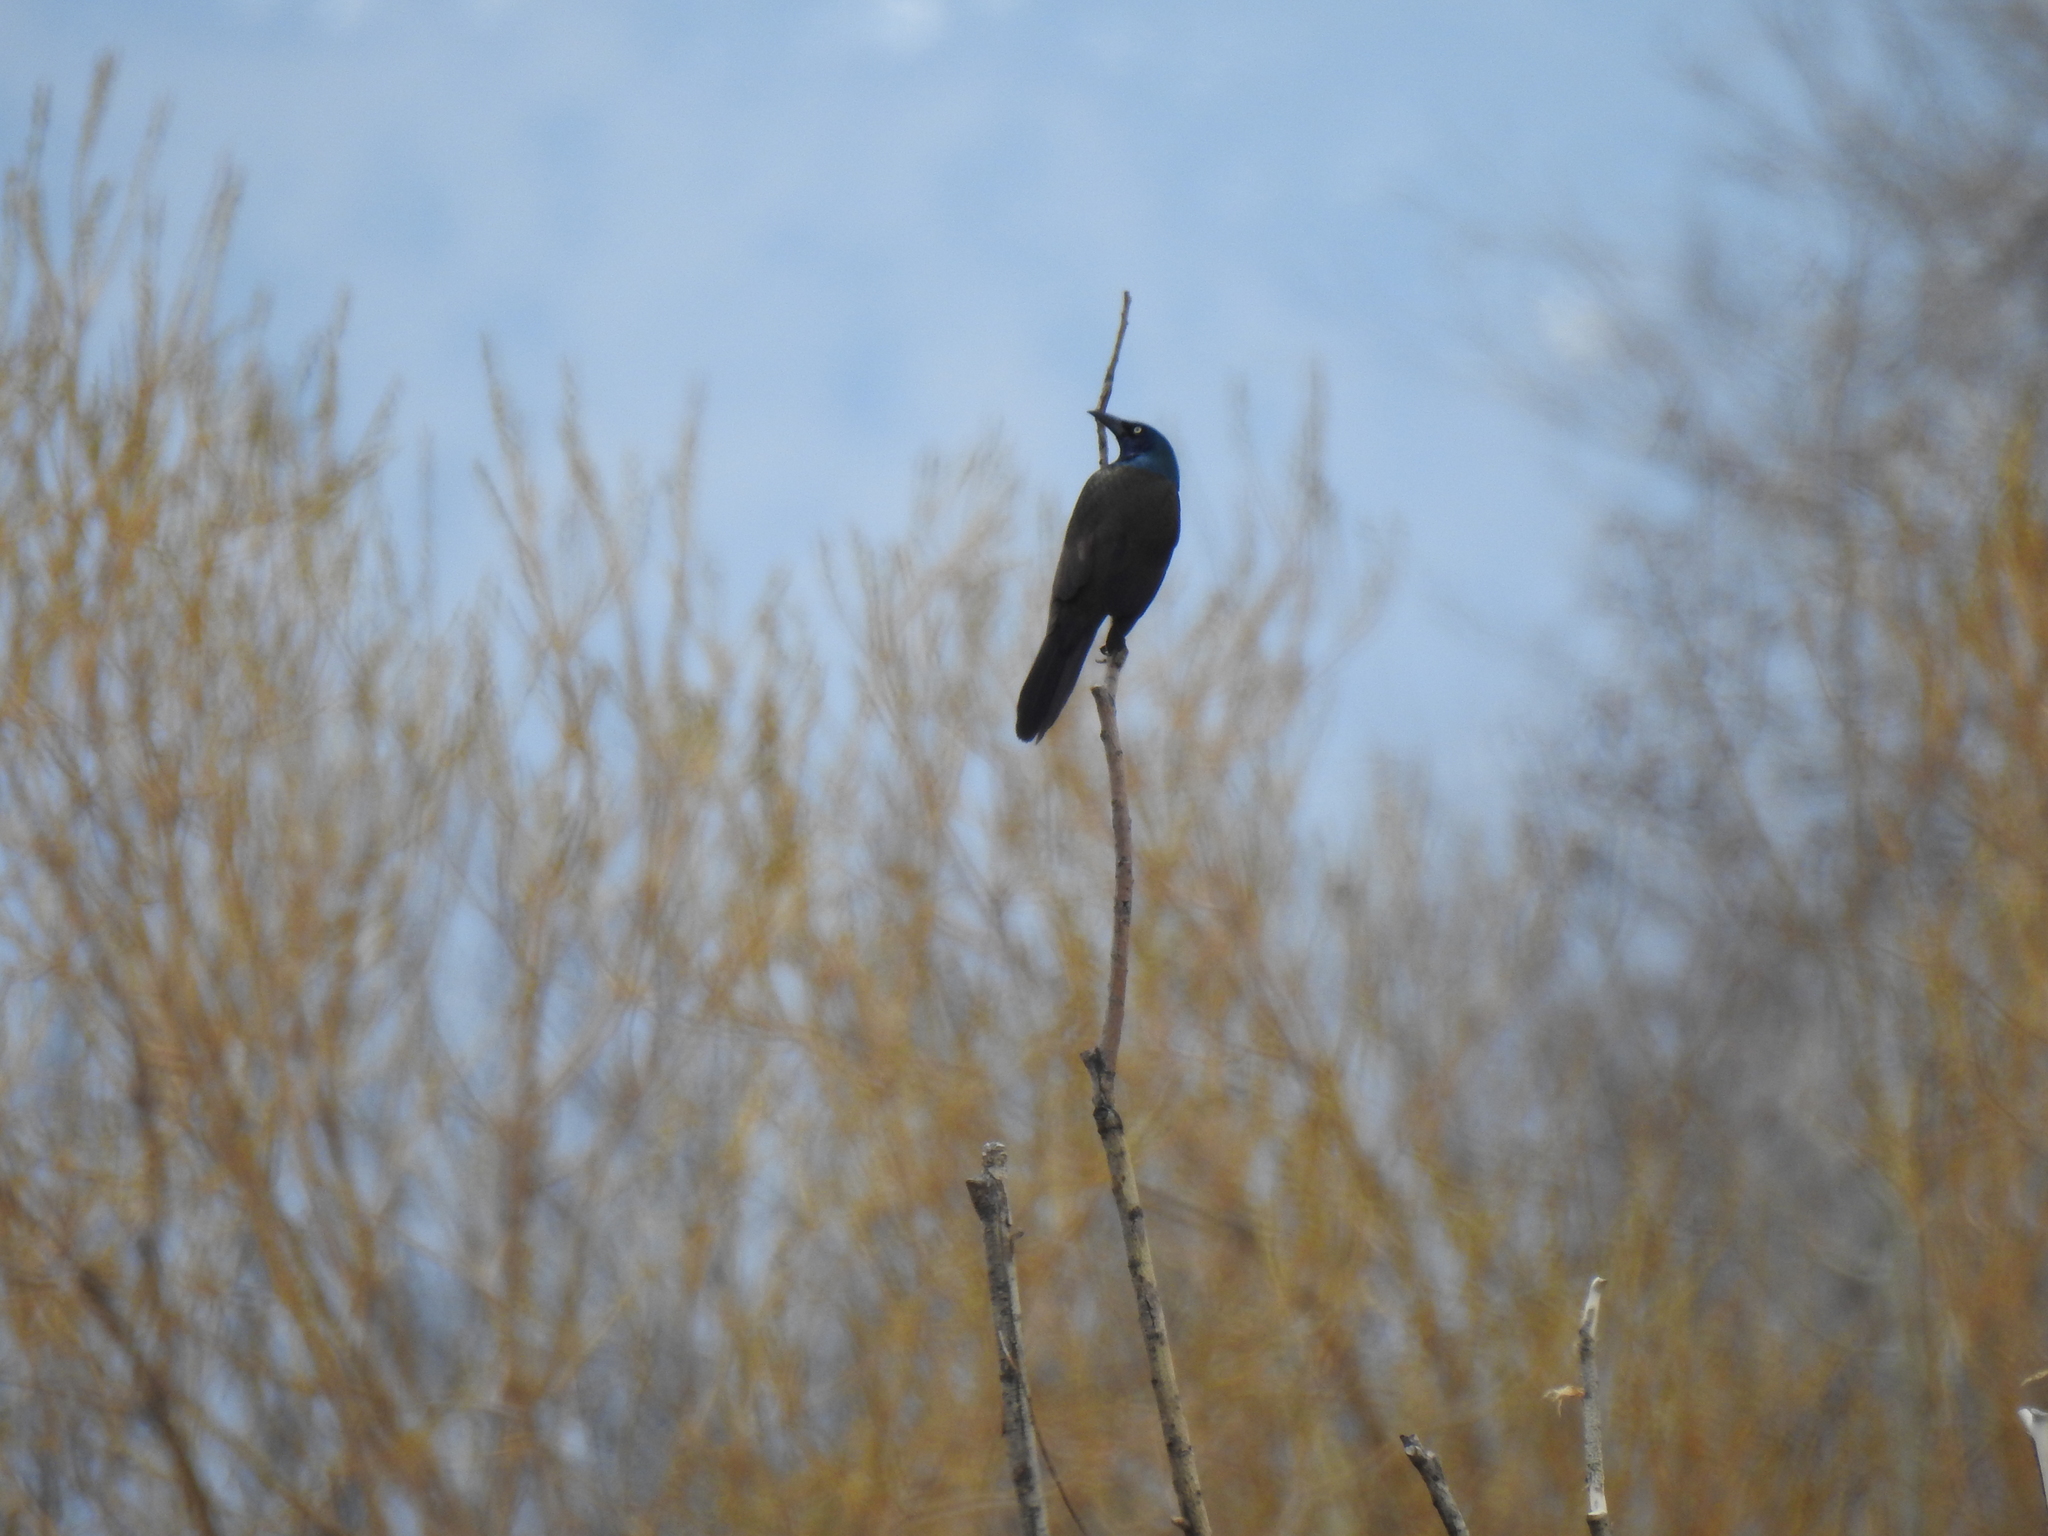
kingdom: Animalia
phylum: Chordata
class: Aves
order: Passeriformes
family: Icteridae
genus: Quiscalus
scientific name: Quiscalus quiscula
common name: Common grackle
